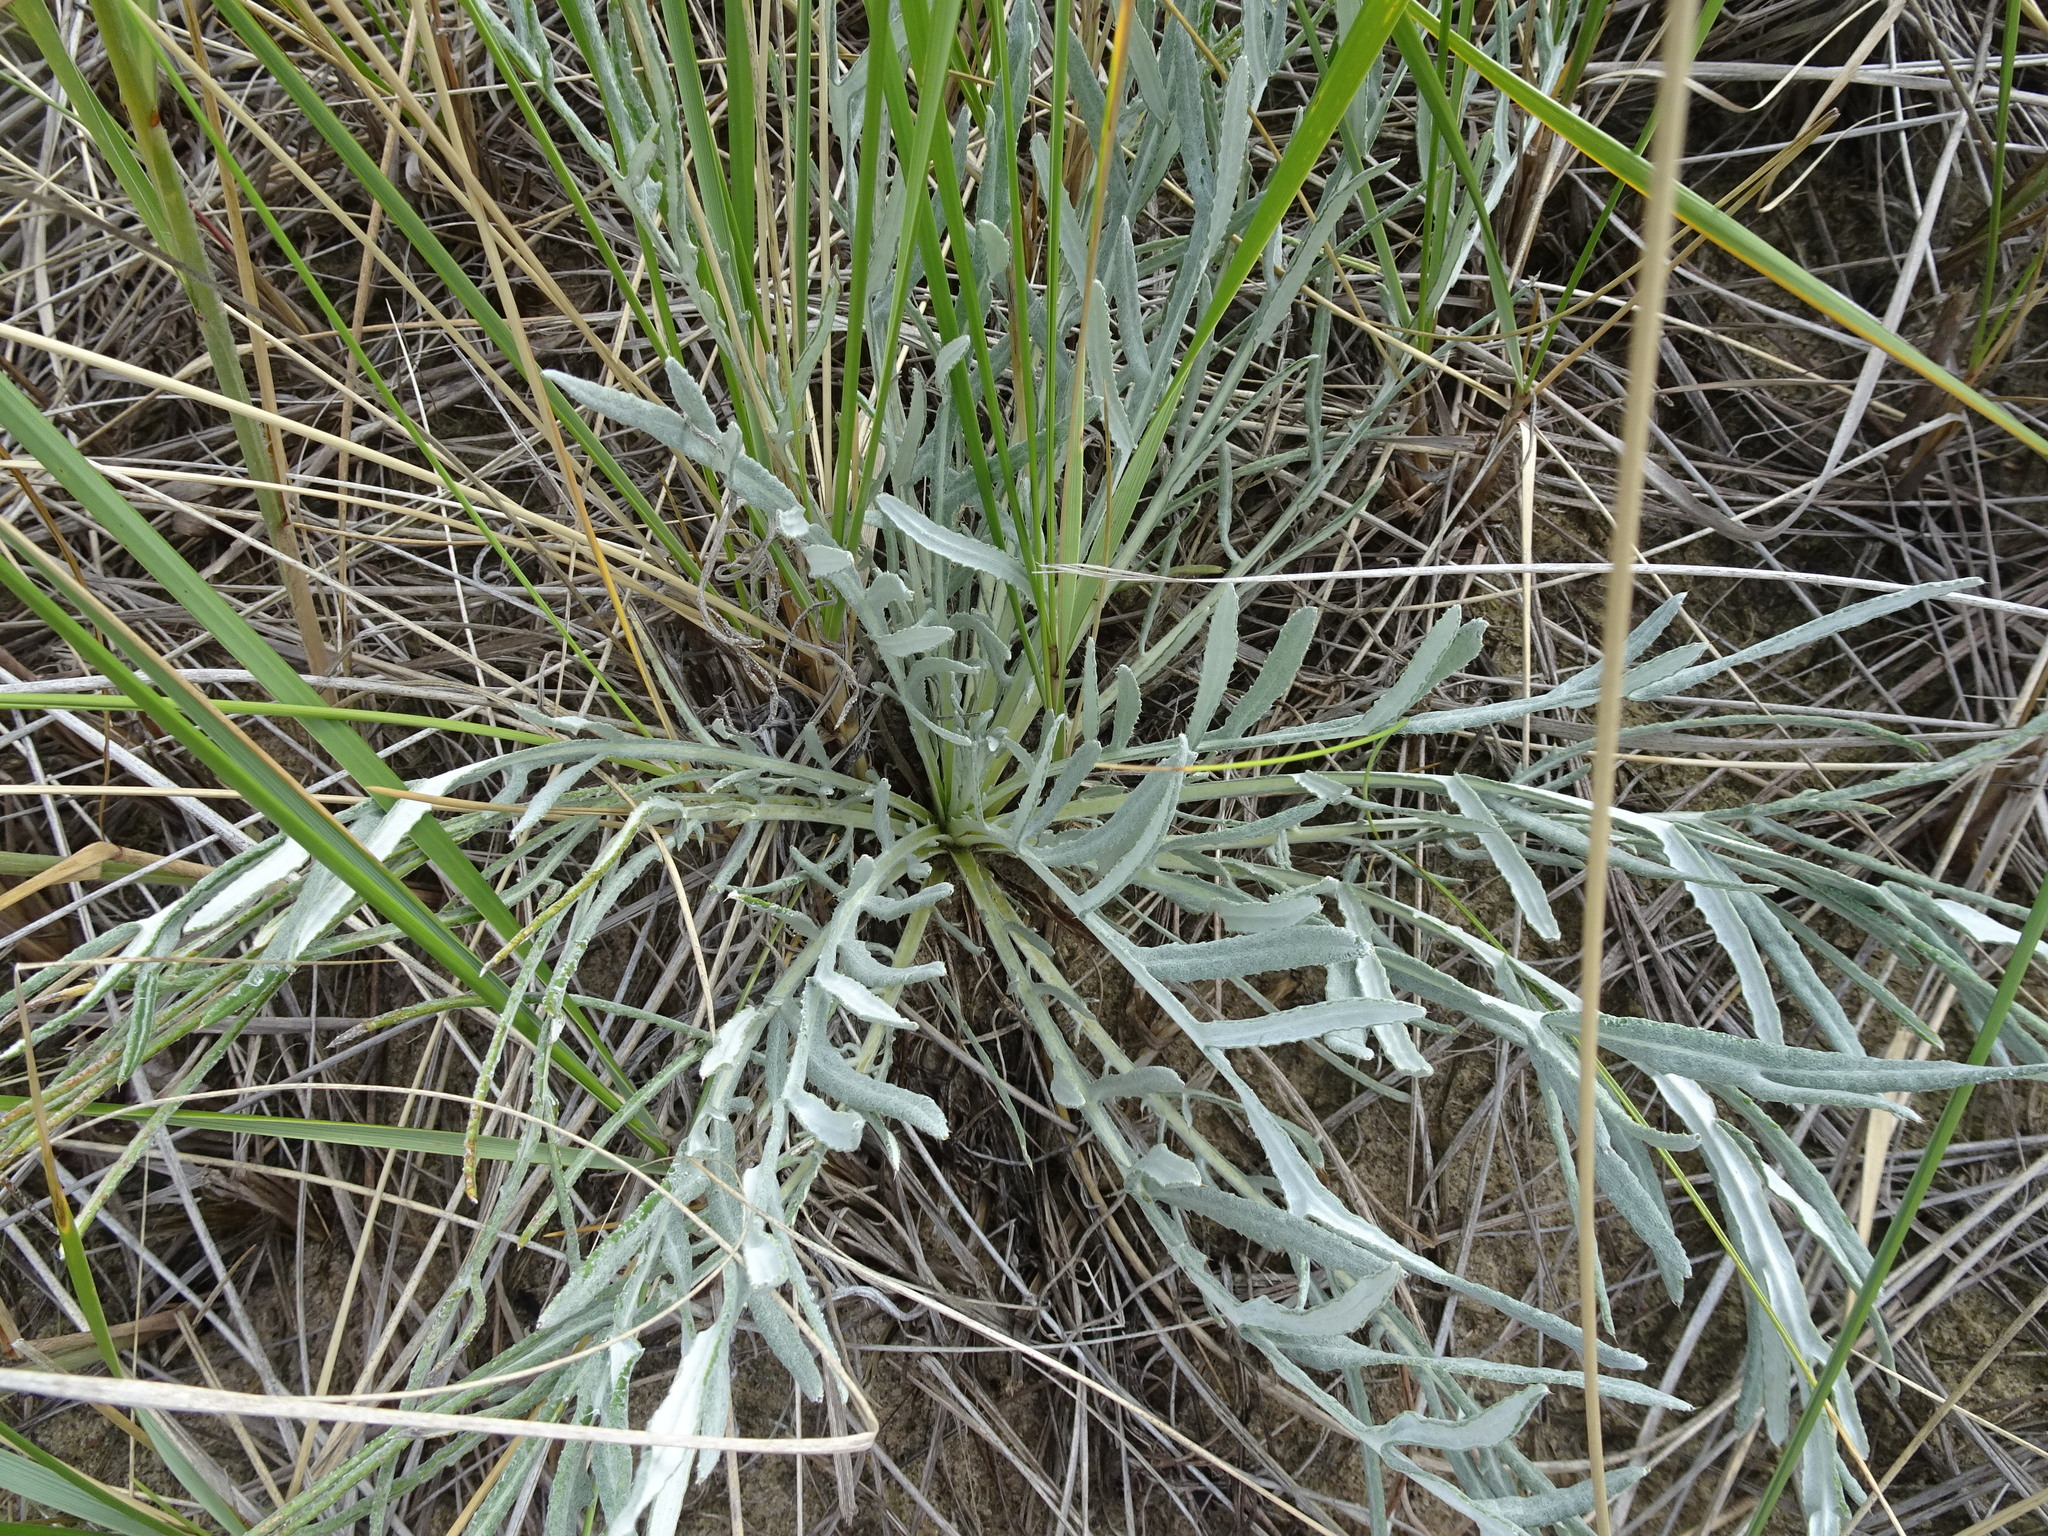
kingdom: Plantae
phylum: Tracheophyta
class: Magnoliopsida
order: Asterales
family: Asteraceae
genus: Cirsium
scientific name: Cirsium pitcheri
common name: Dune thistle
